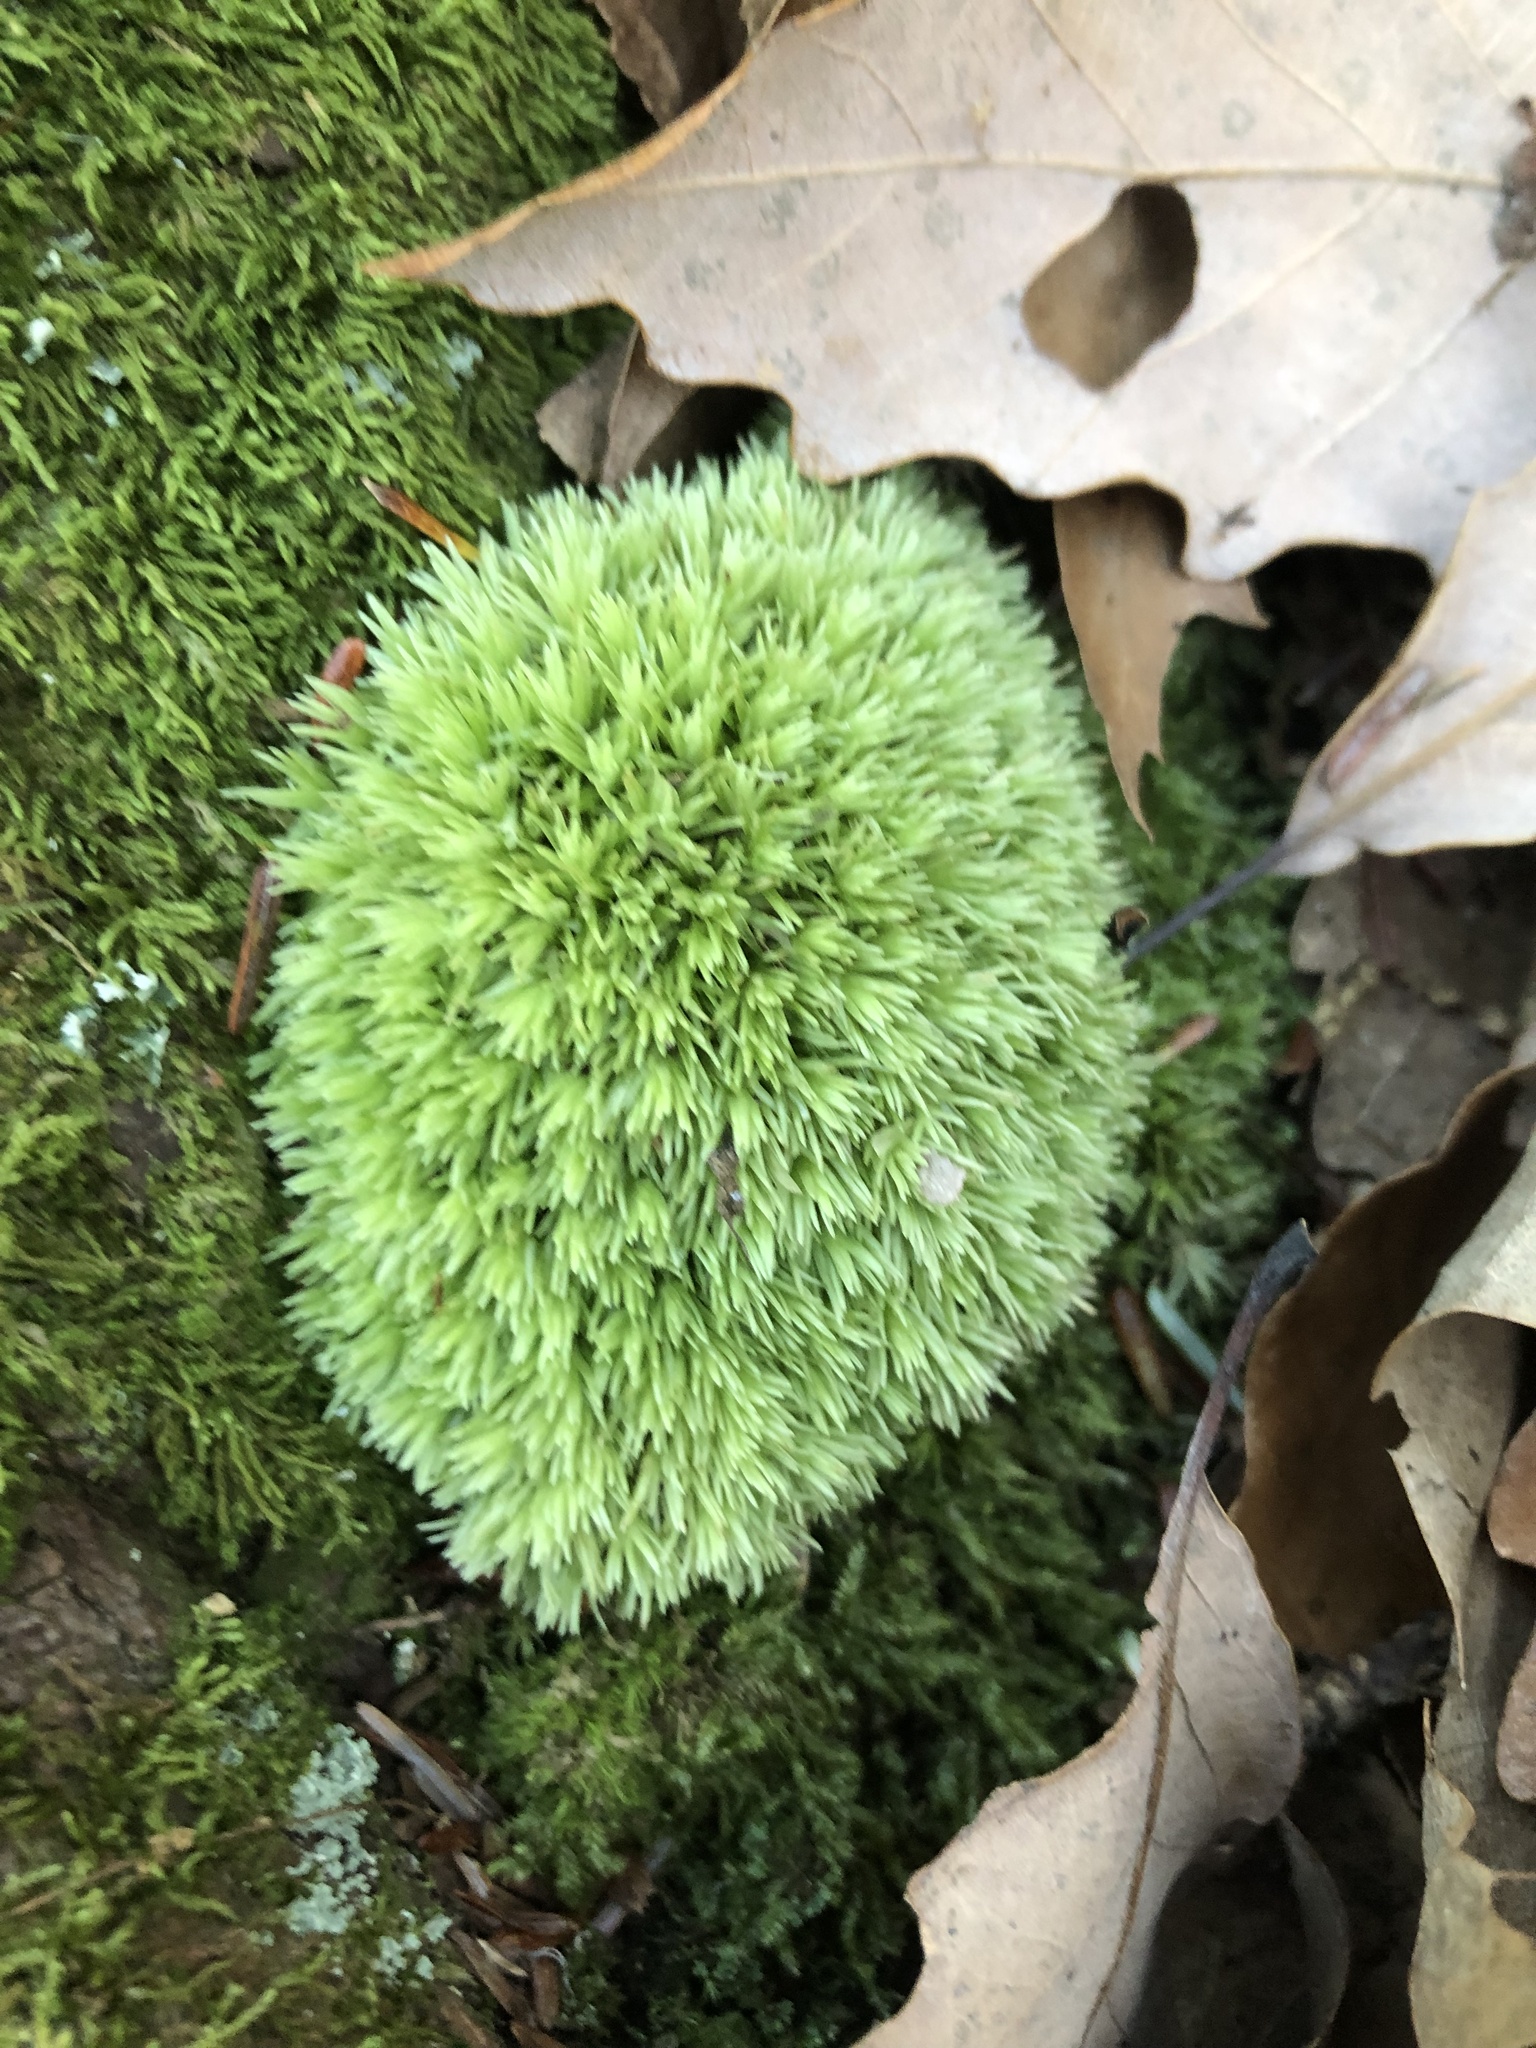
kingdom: Plantae
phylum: Bryophyta
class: Bryopsida
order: Dicranales
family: Leucobryaceae
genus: Leucobryum
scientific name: Leucobryum glaucum
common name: Large white-moss
